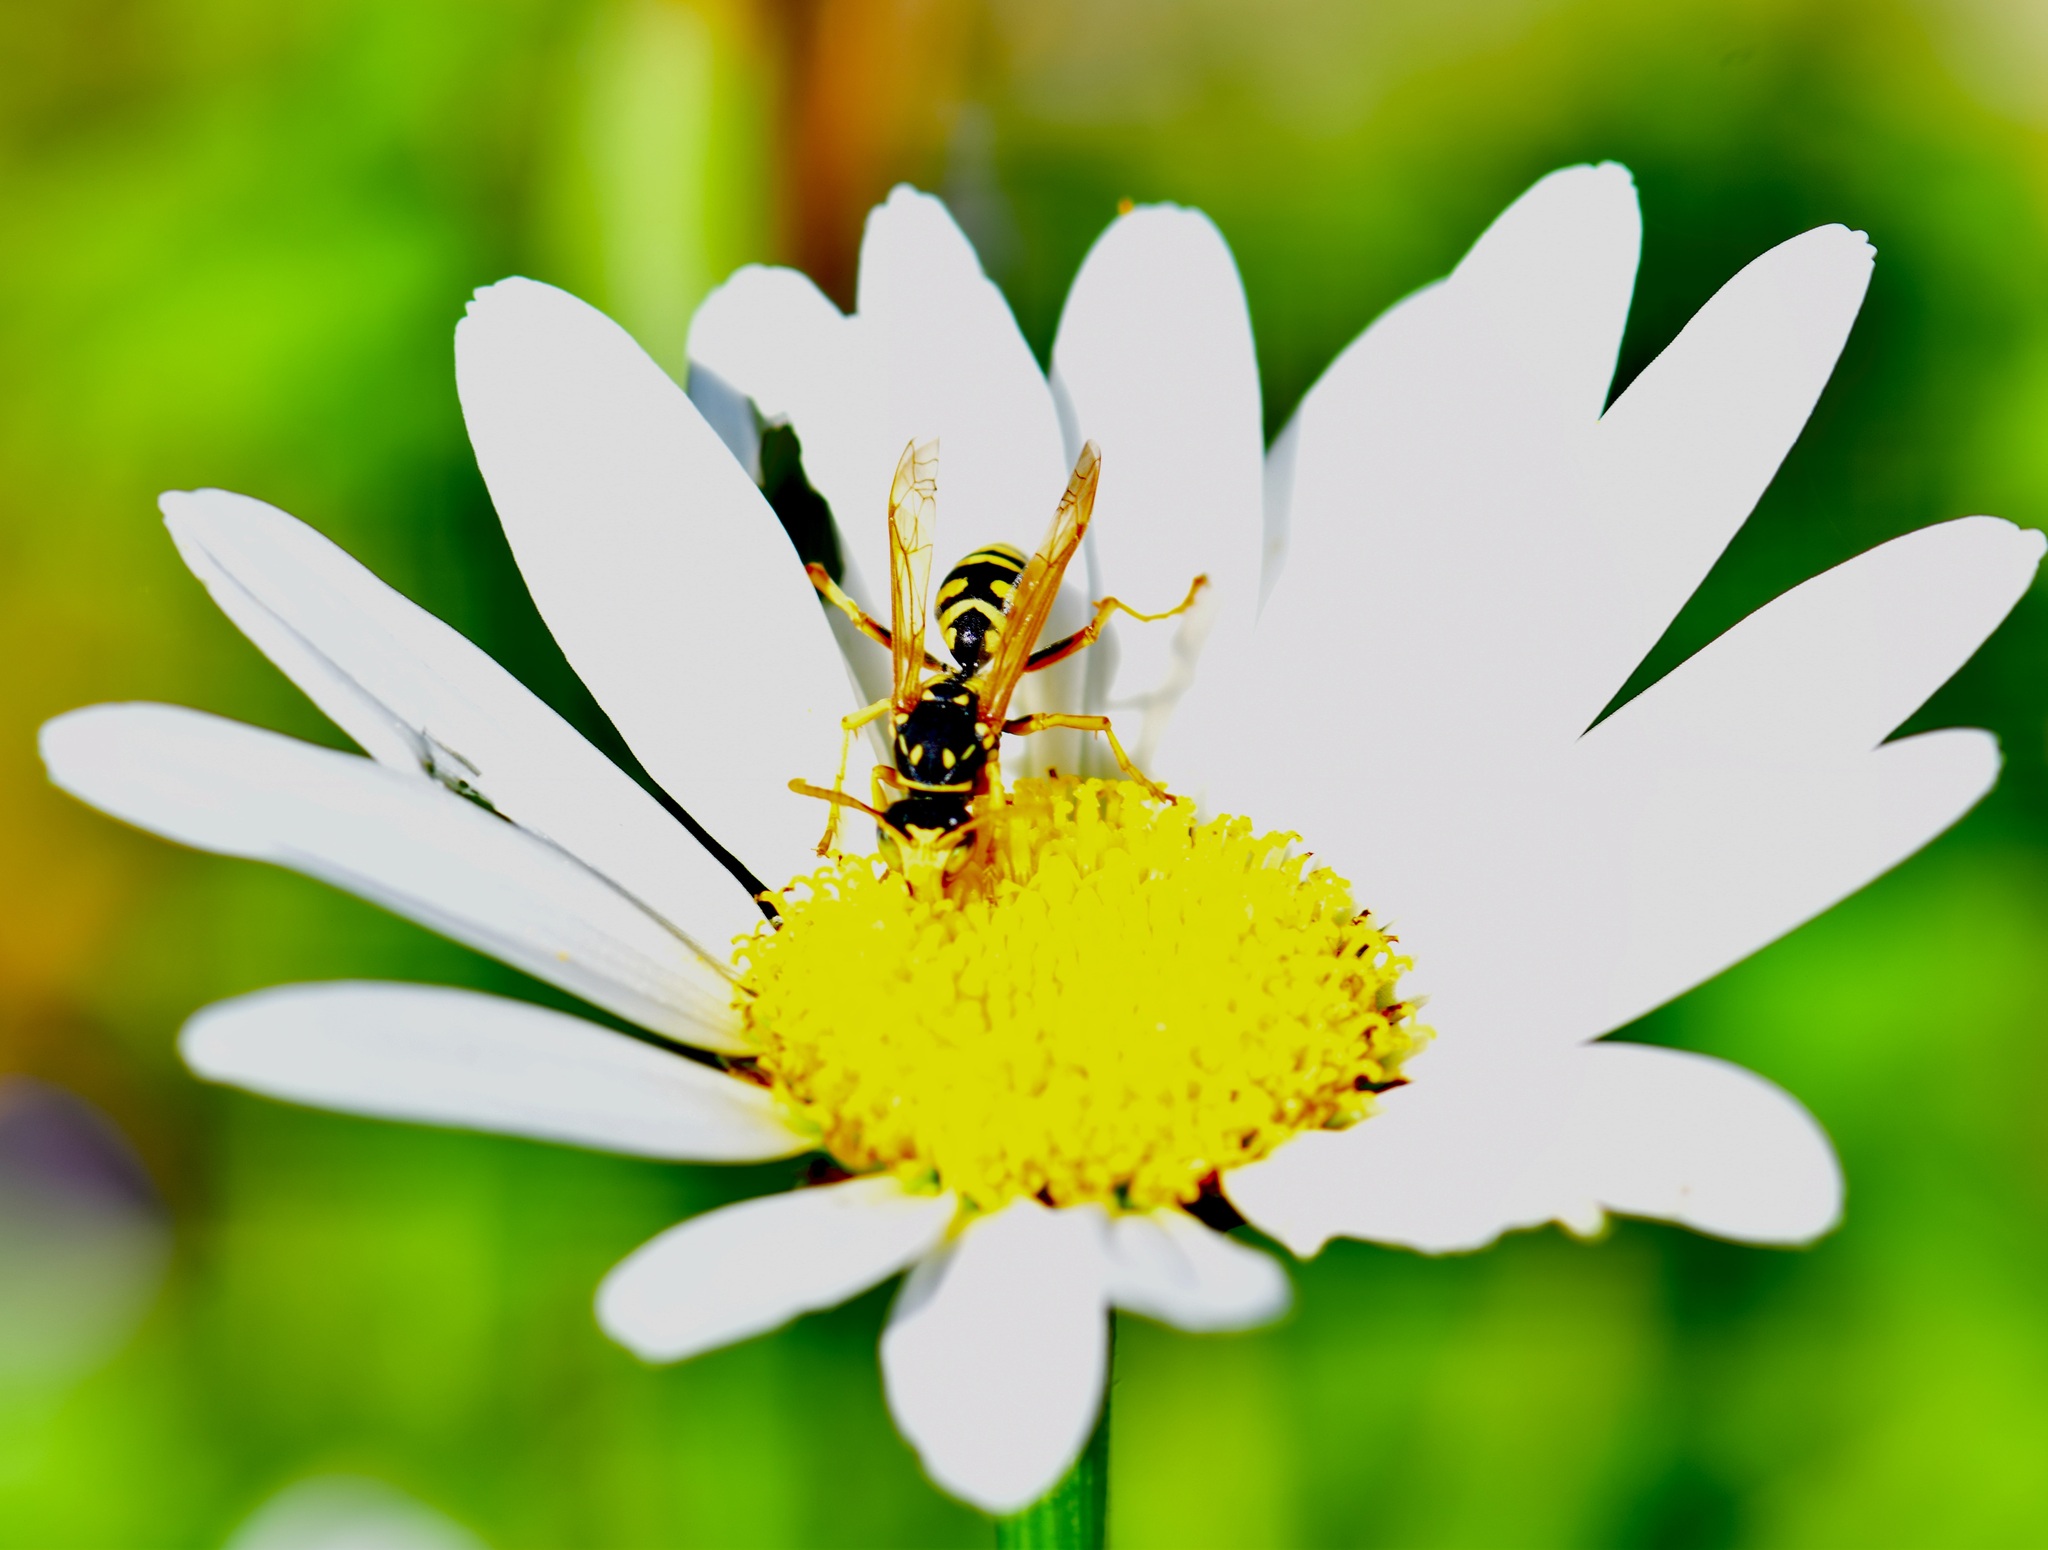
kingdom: Animalia
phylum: Arthropoda
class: Insecta
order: Hymenoptera
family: Eumenidae
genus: Polistes
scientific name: Polistes dominula
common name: Paper wasp
